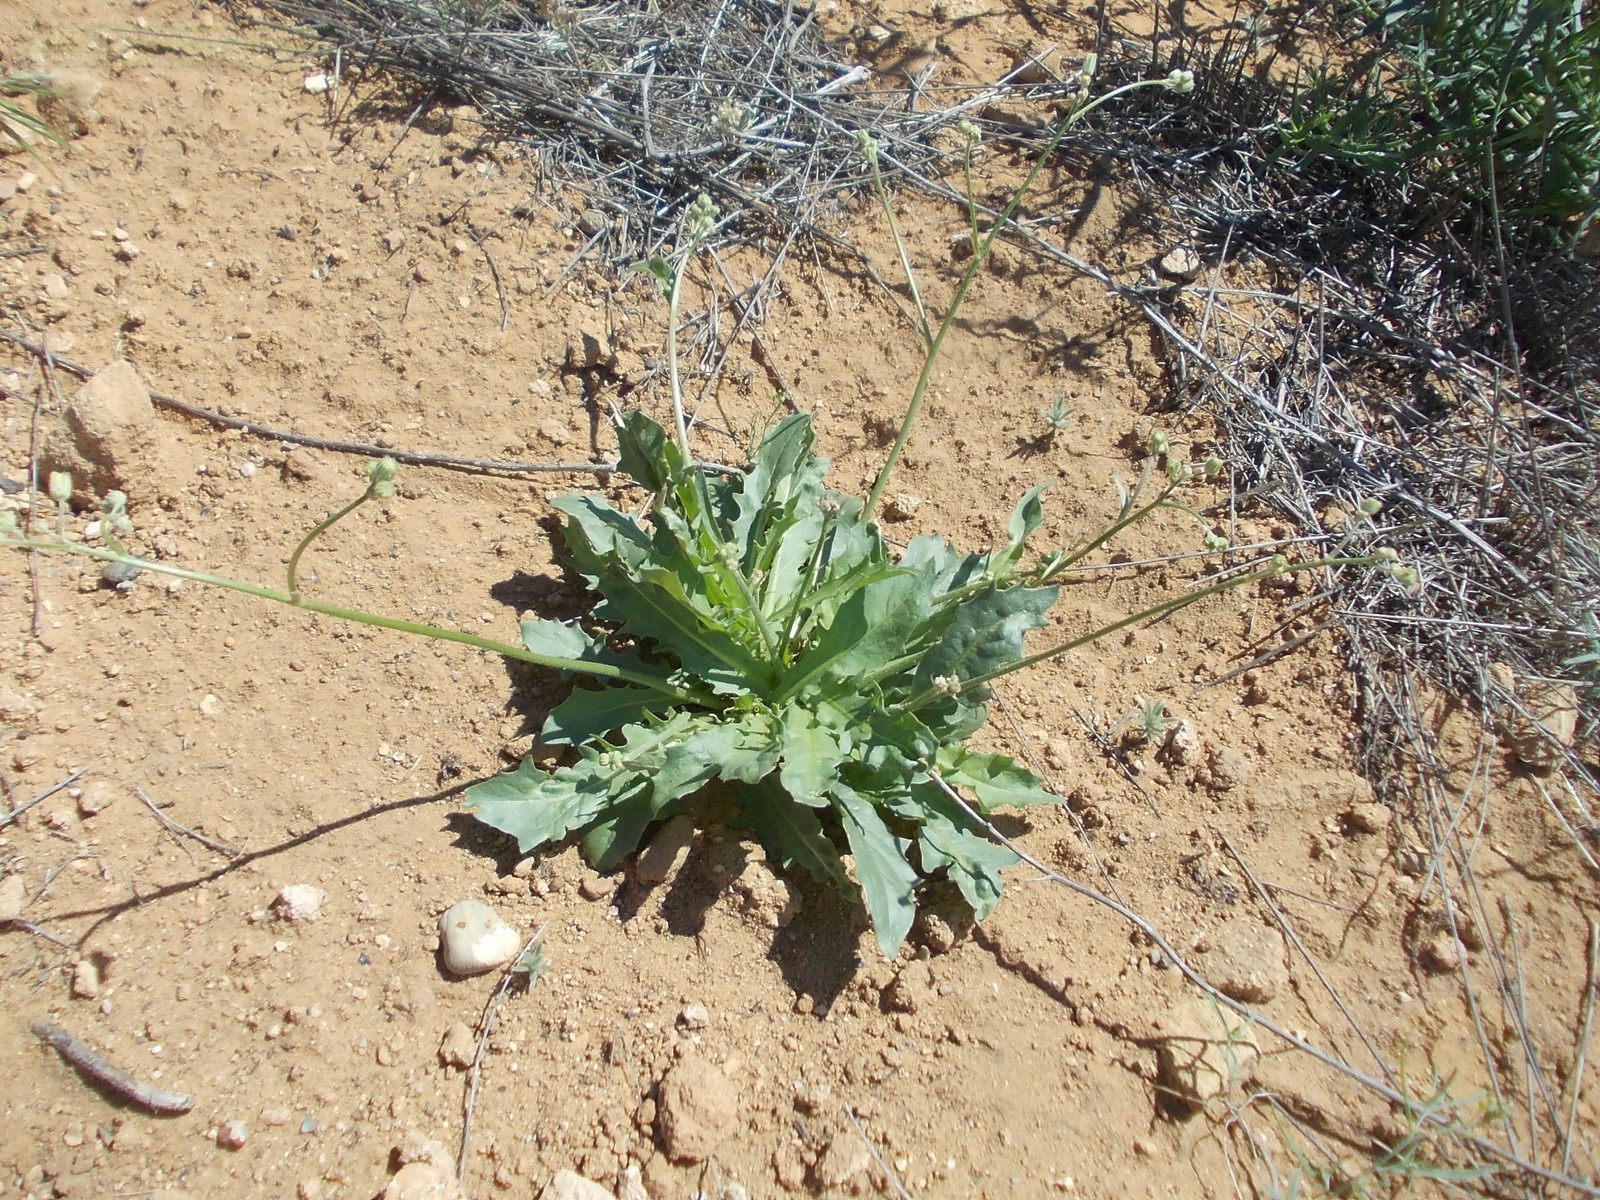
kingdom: Plantae
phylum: Tracheophyta
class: Magnoliopsida
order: Asterales
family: Asteraceae
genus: Crepis
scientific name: Crepis sancta
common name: Hawk's-beard
